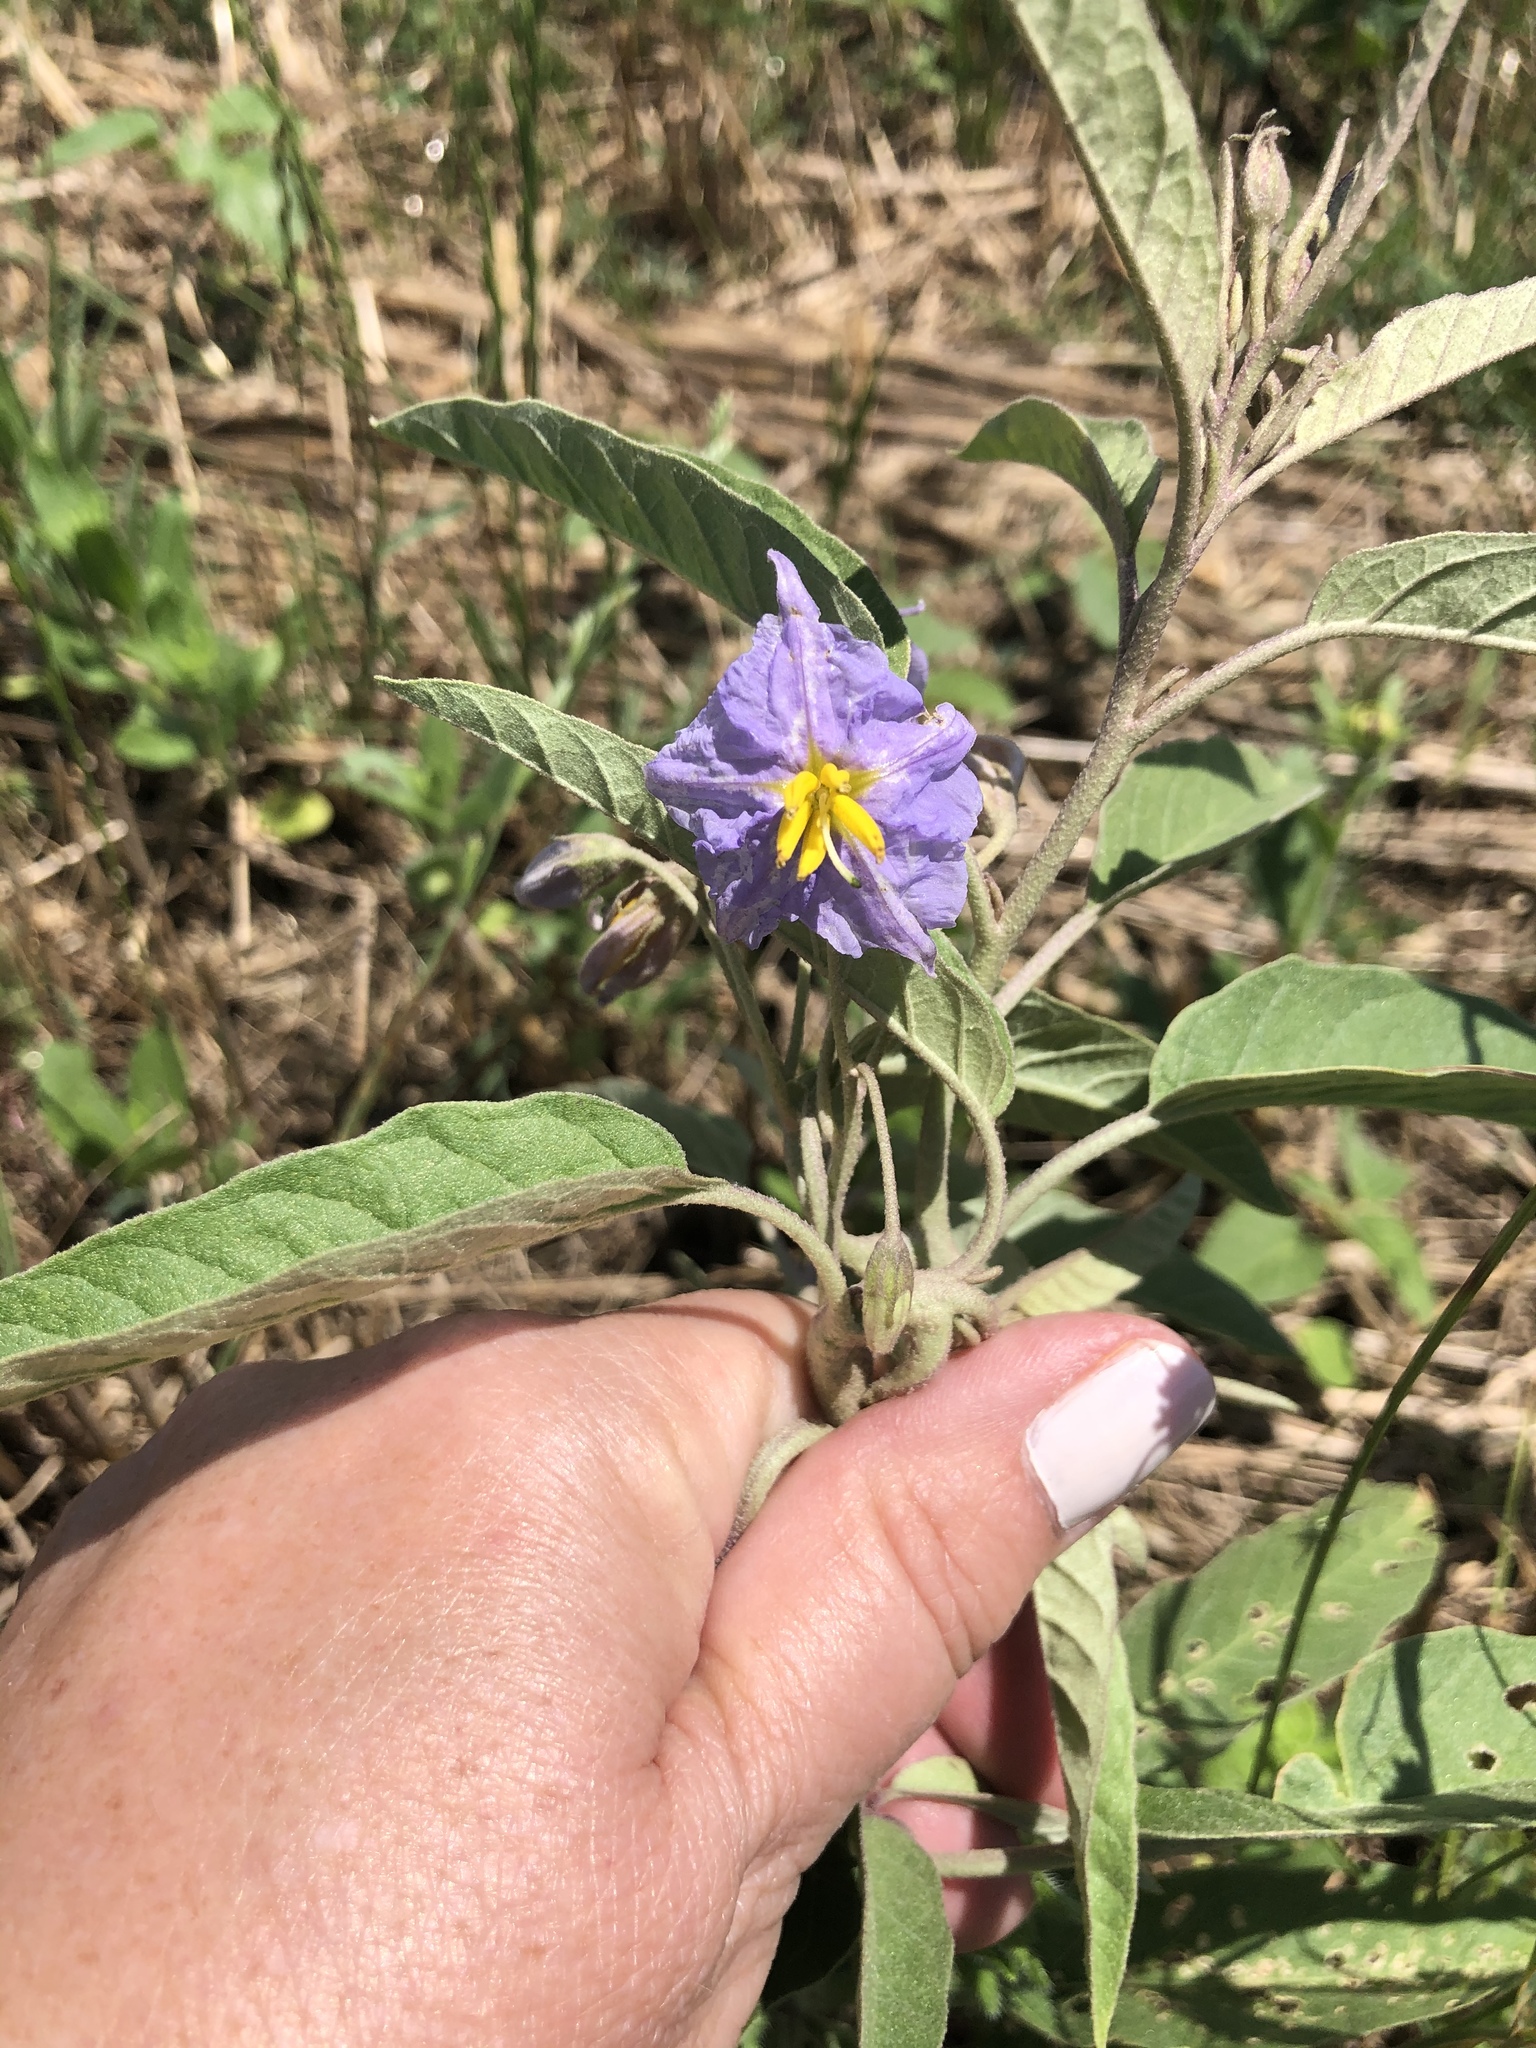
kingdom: Plantae
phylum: Tracheophyta
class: Magnoliopsida
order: Solanales
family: Solanaceae
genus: Solanum
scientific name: Solanum elaeagnifolium
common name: Silverleaf nightshade
